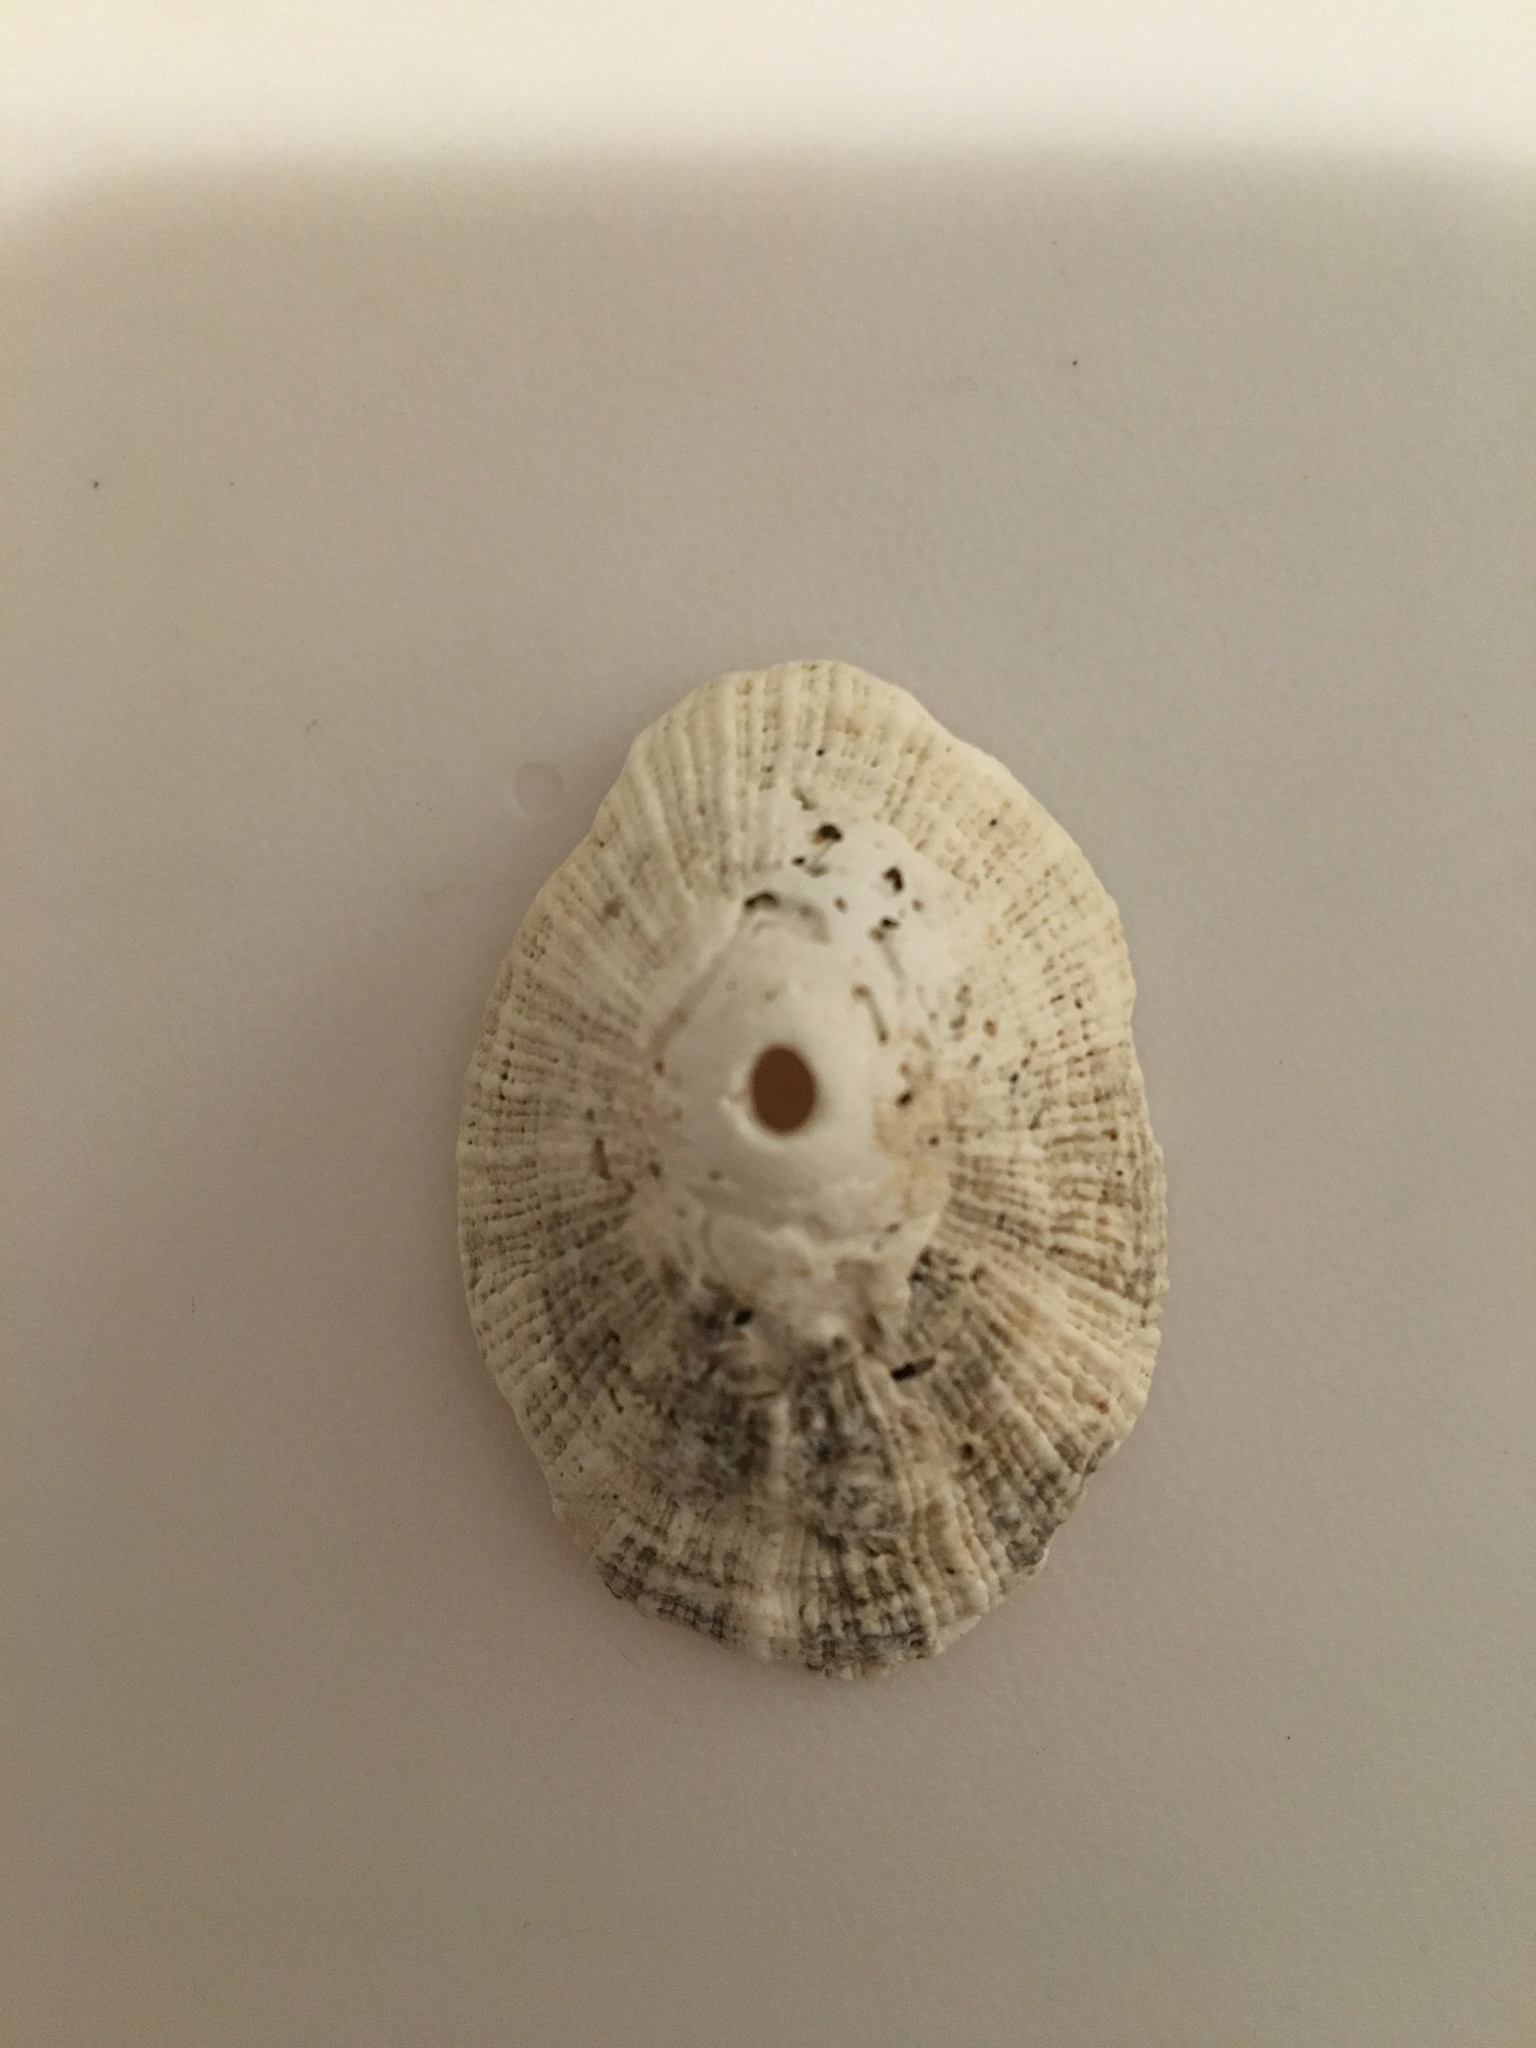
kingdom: Animalia
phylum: Mollusca
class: Gastropoda
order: Lepetellida
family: Fissurellidae
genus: Diodora
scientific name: Diodora aspera
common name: Rough keyhole limpet
